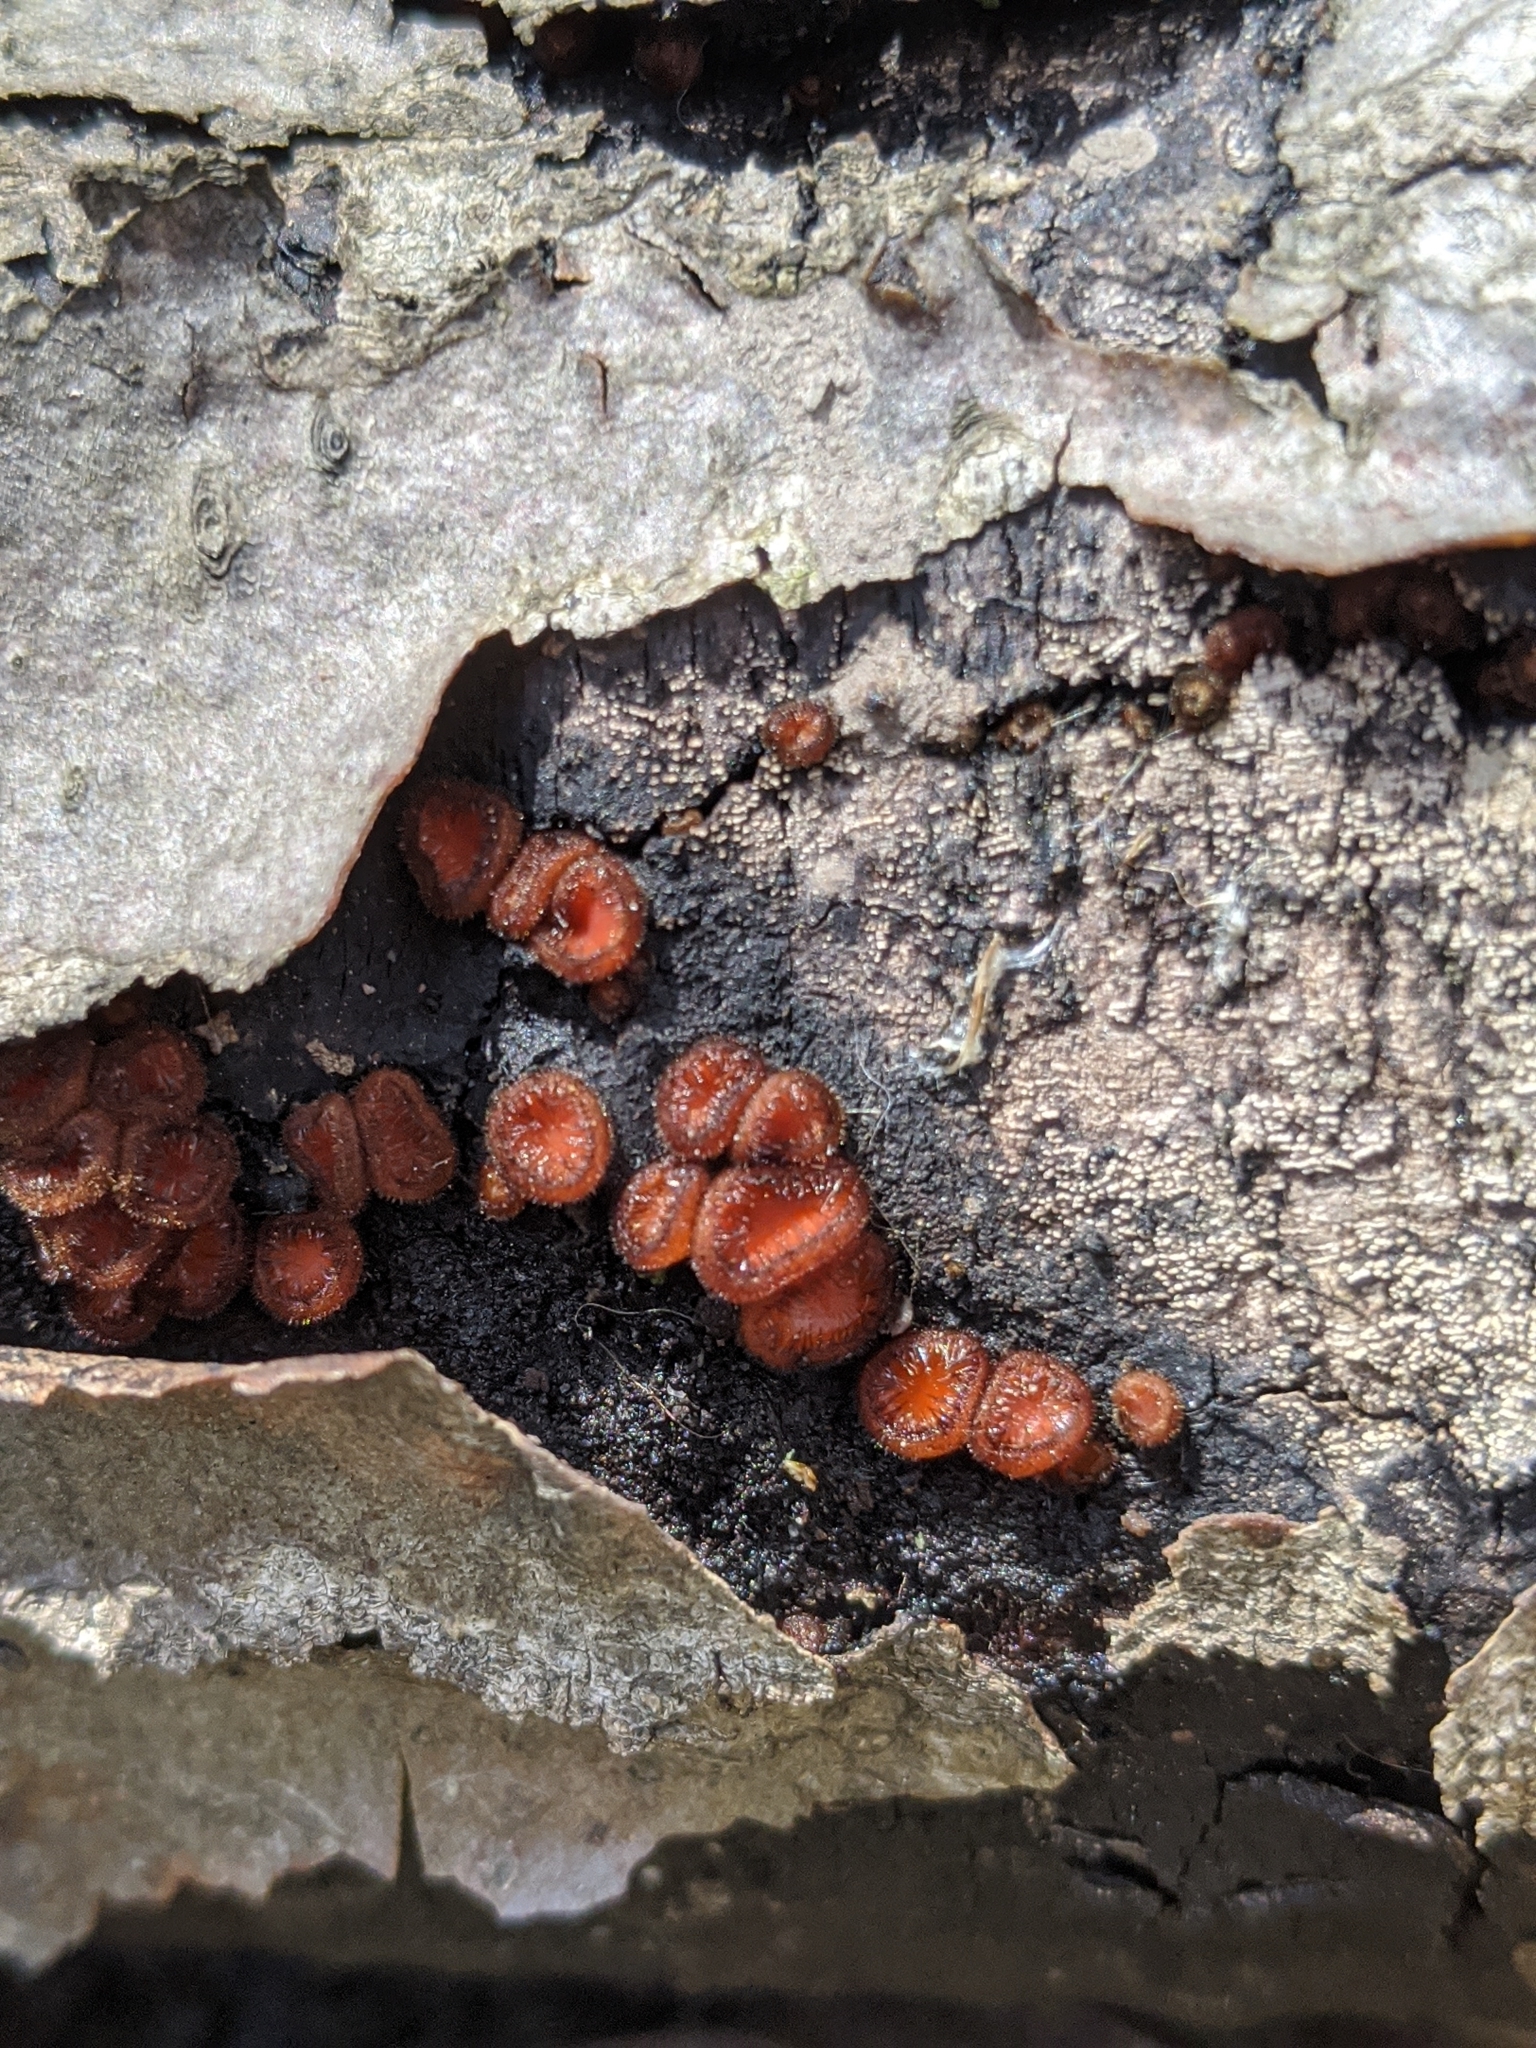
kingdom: Fungi
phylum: Ascomycota
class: Pezizomycetes
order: Pezizales
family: Pyronemataceae
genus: Scutellinia
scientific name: Scutellinia
